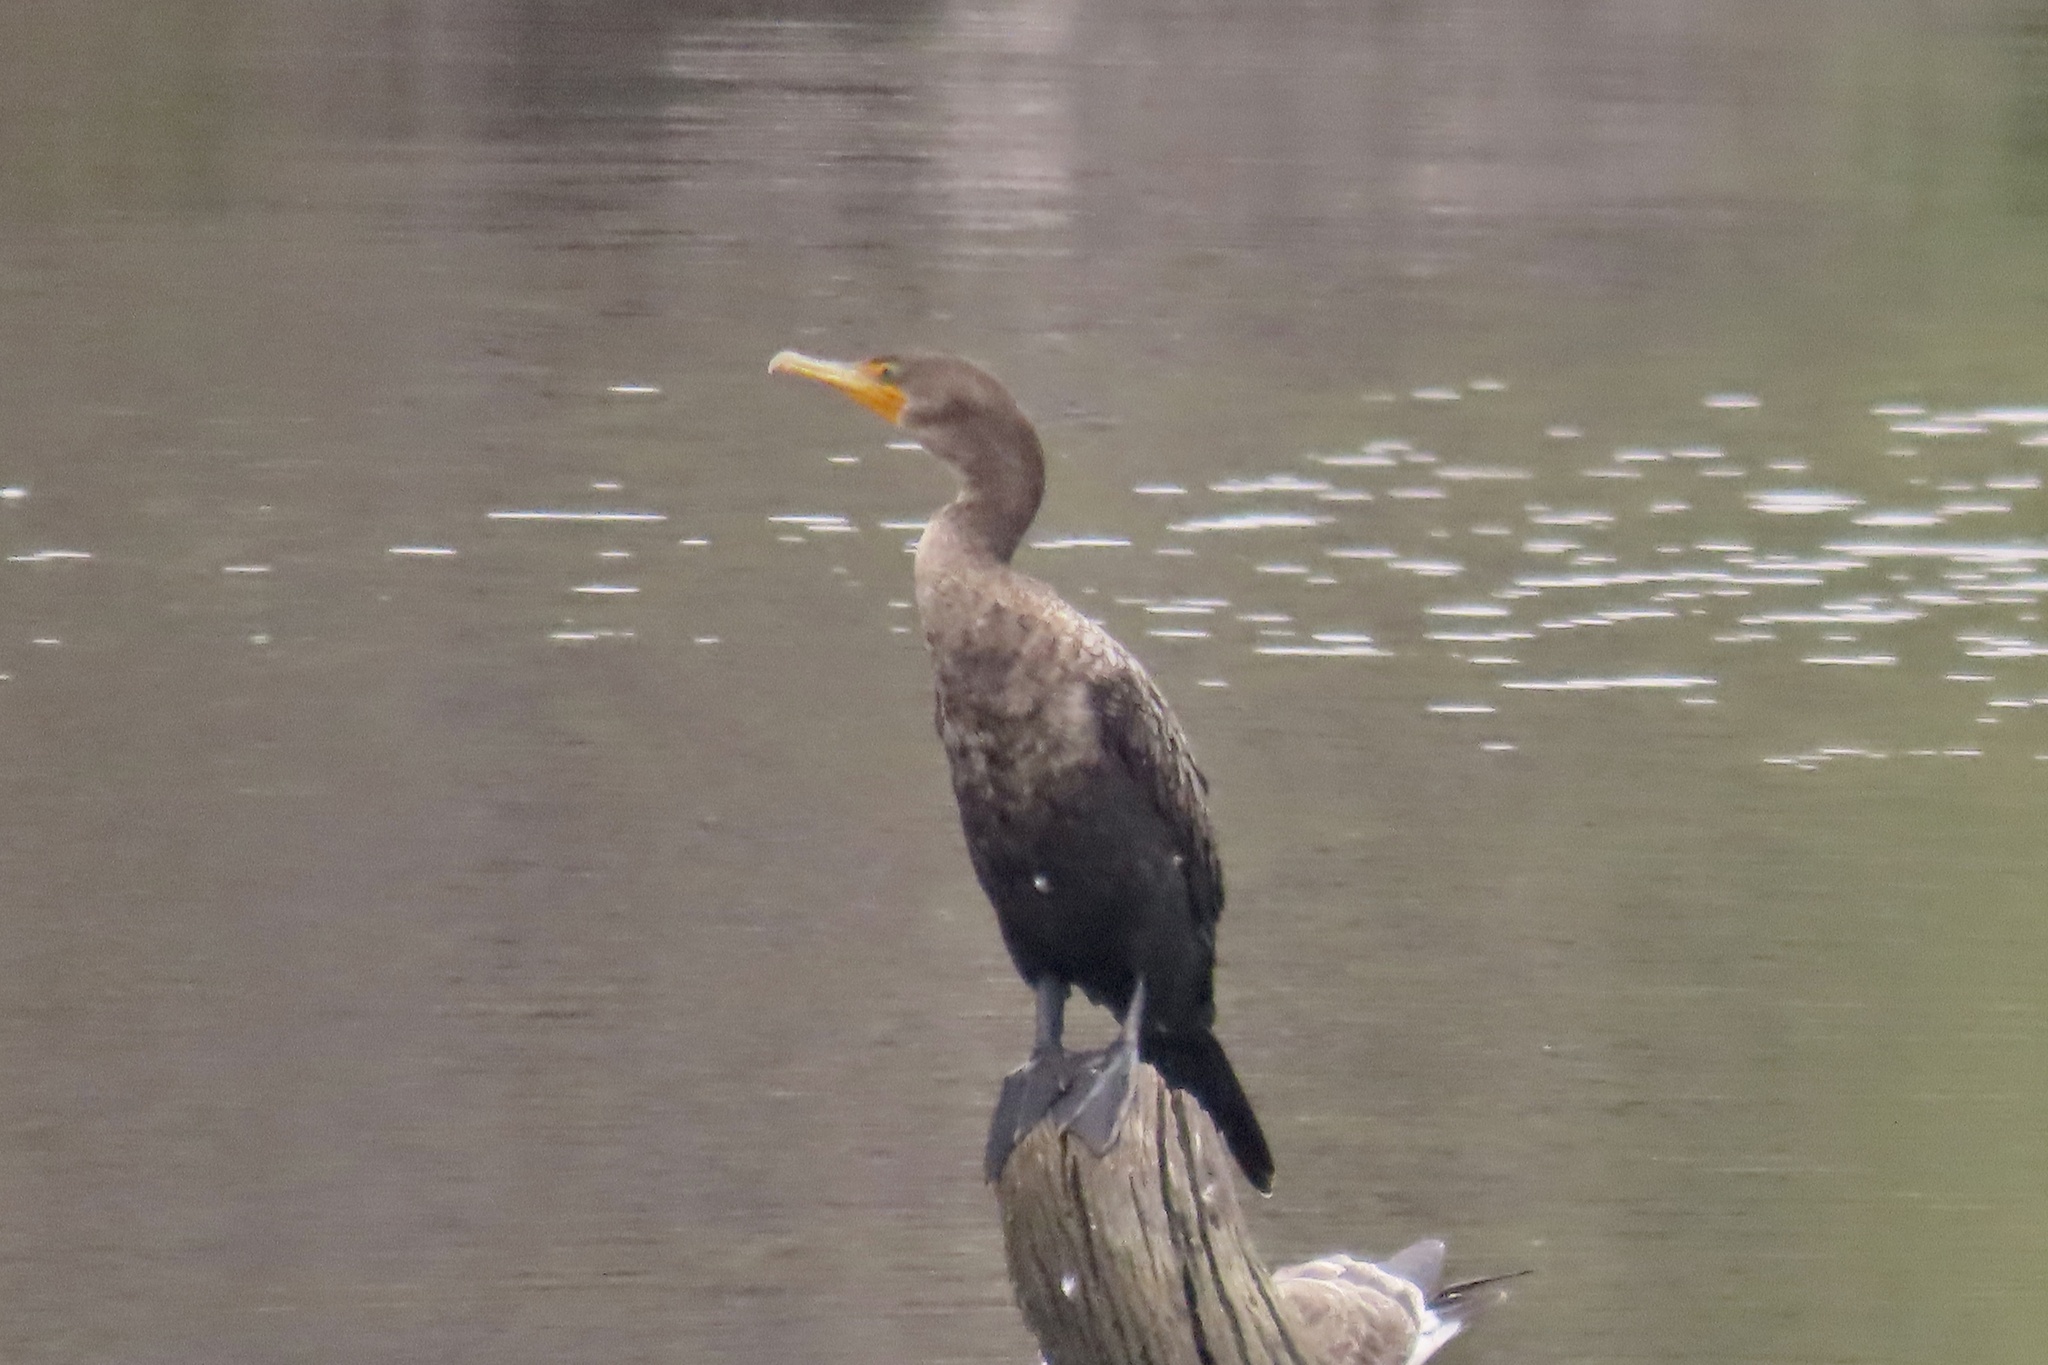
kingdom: Animalia
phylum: Chordata
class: Aves
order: Suliformes
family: Phalacrocoracidae
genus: Phalacrocorax
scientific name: Phalacrocorax auritus
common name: Double-crested cormorant
